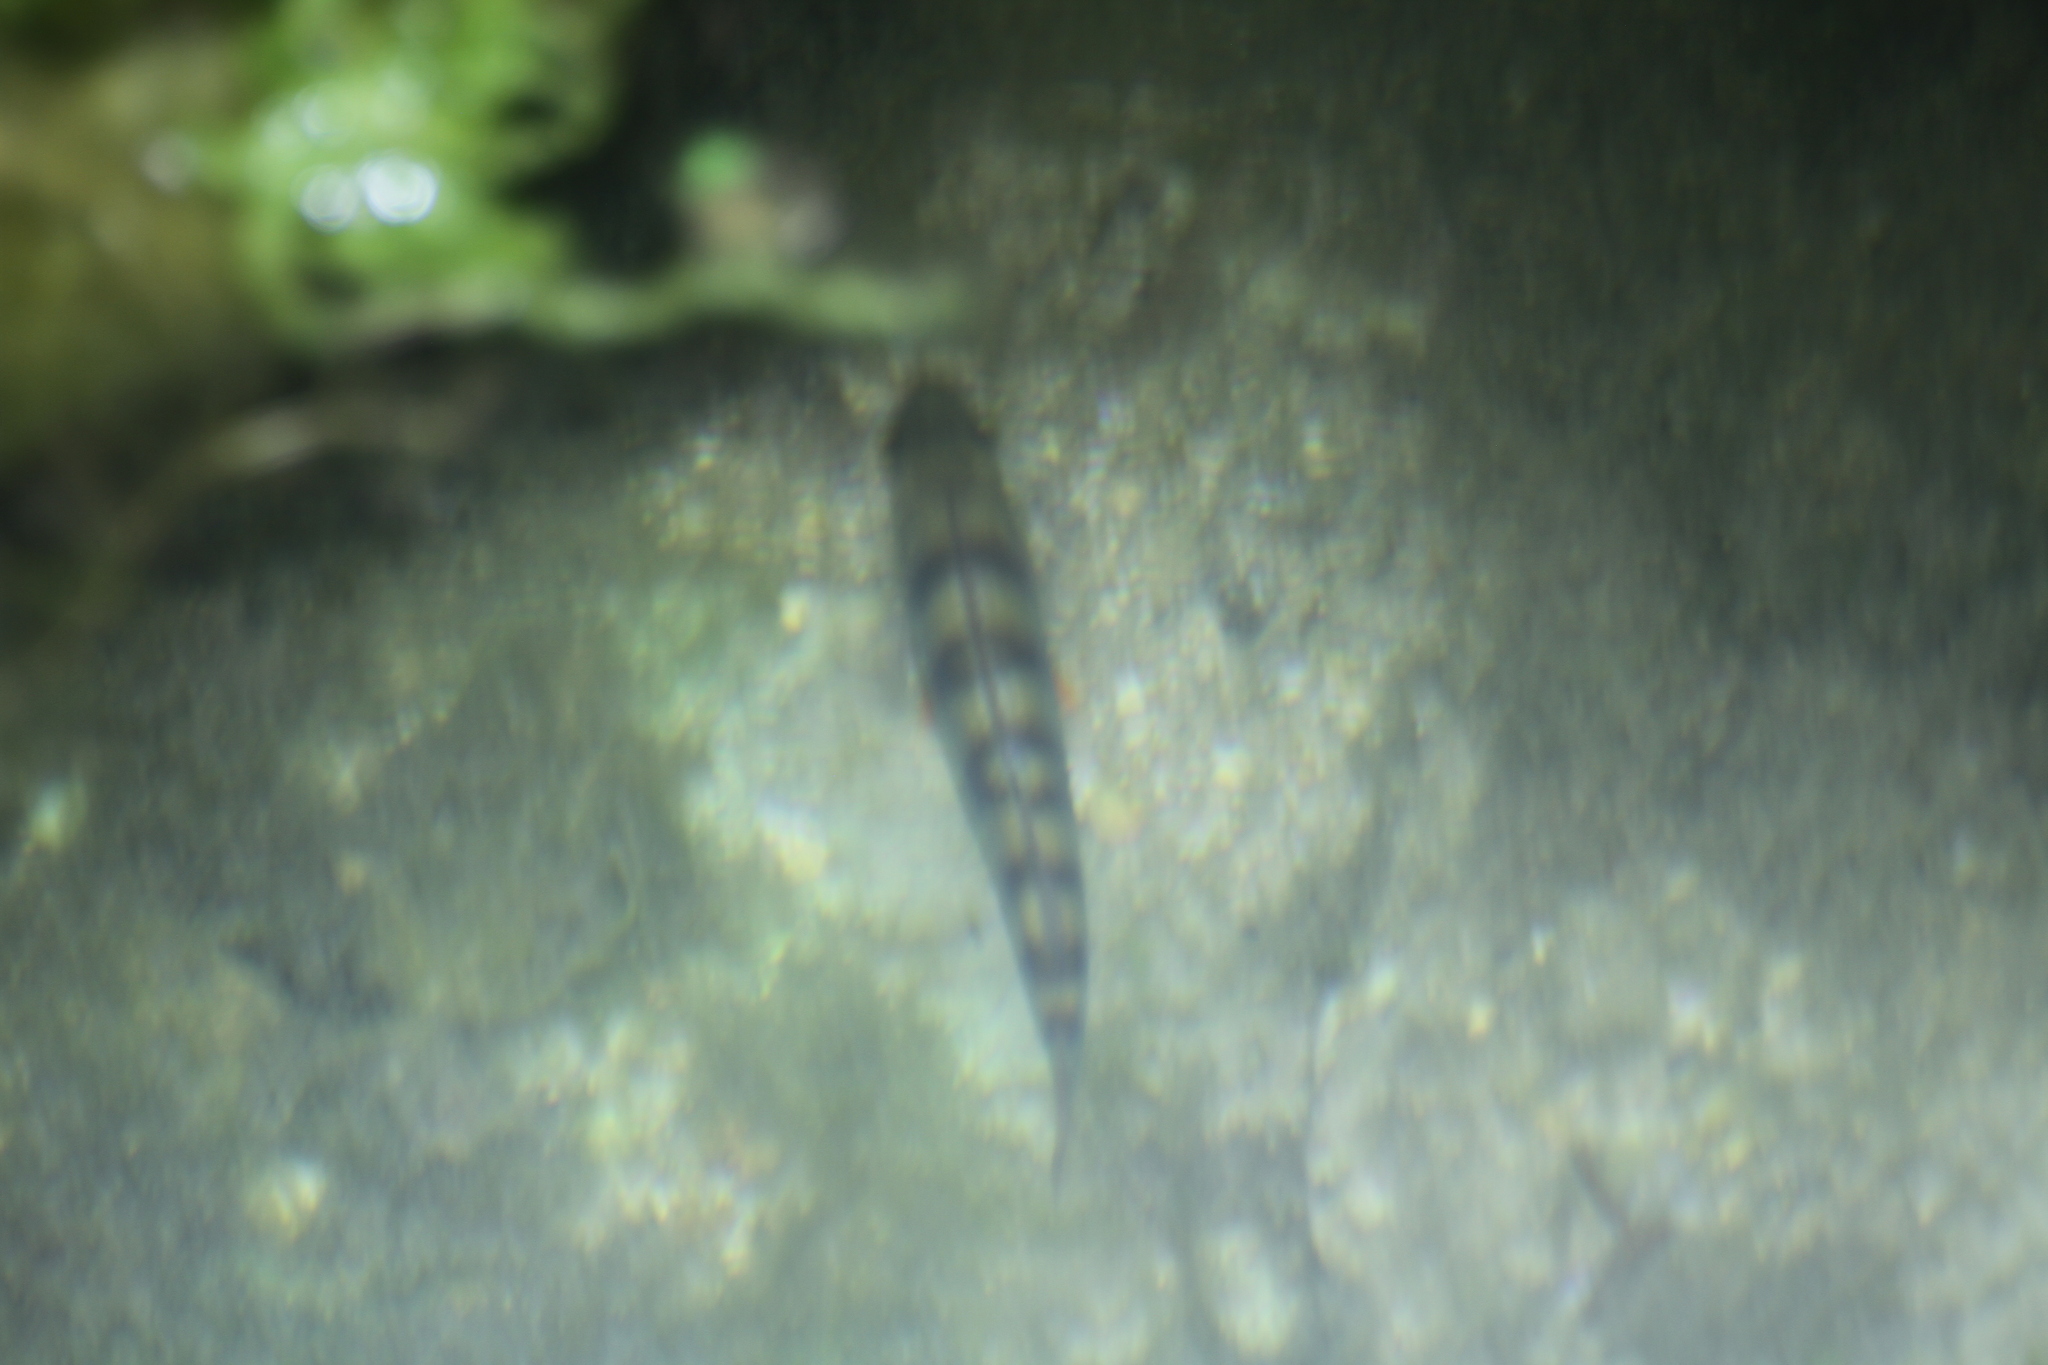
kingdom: Animalia
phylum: Chordata
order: Perciformes
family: Percidae
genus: Perca
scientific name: Perca fluviatilis
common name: Perch
